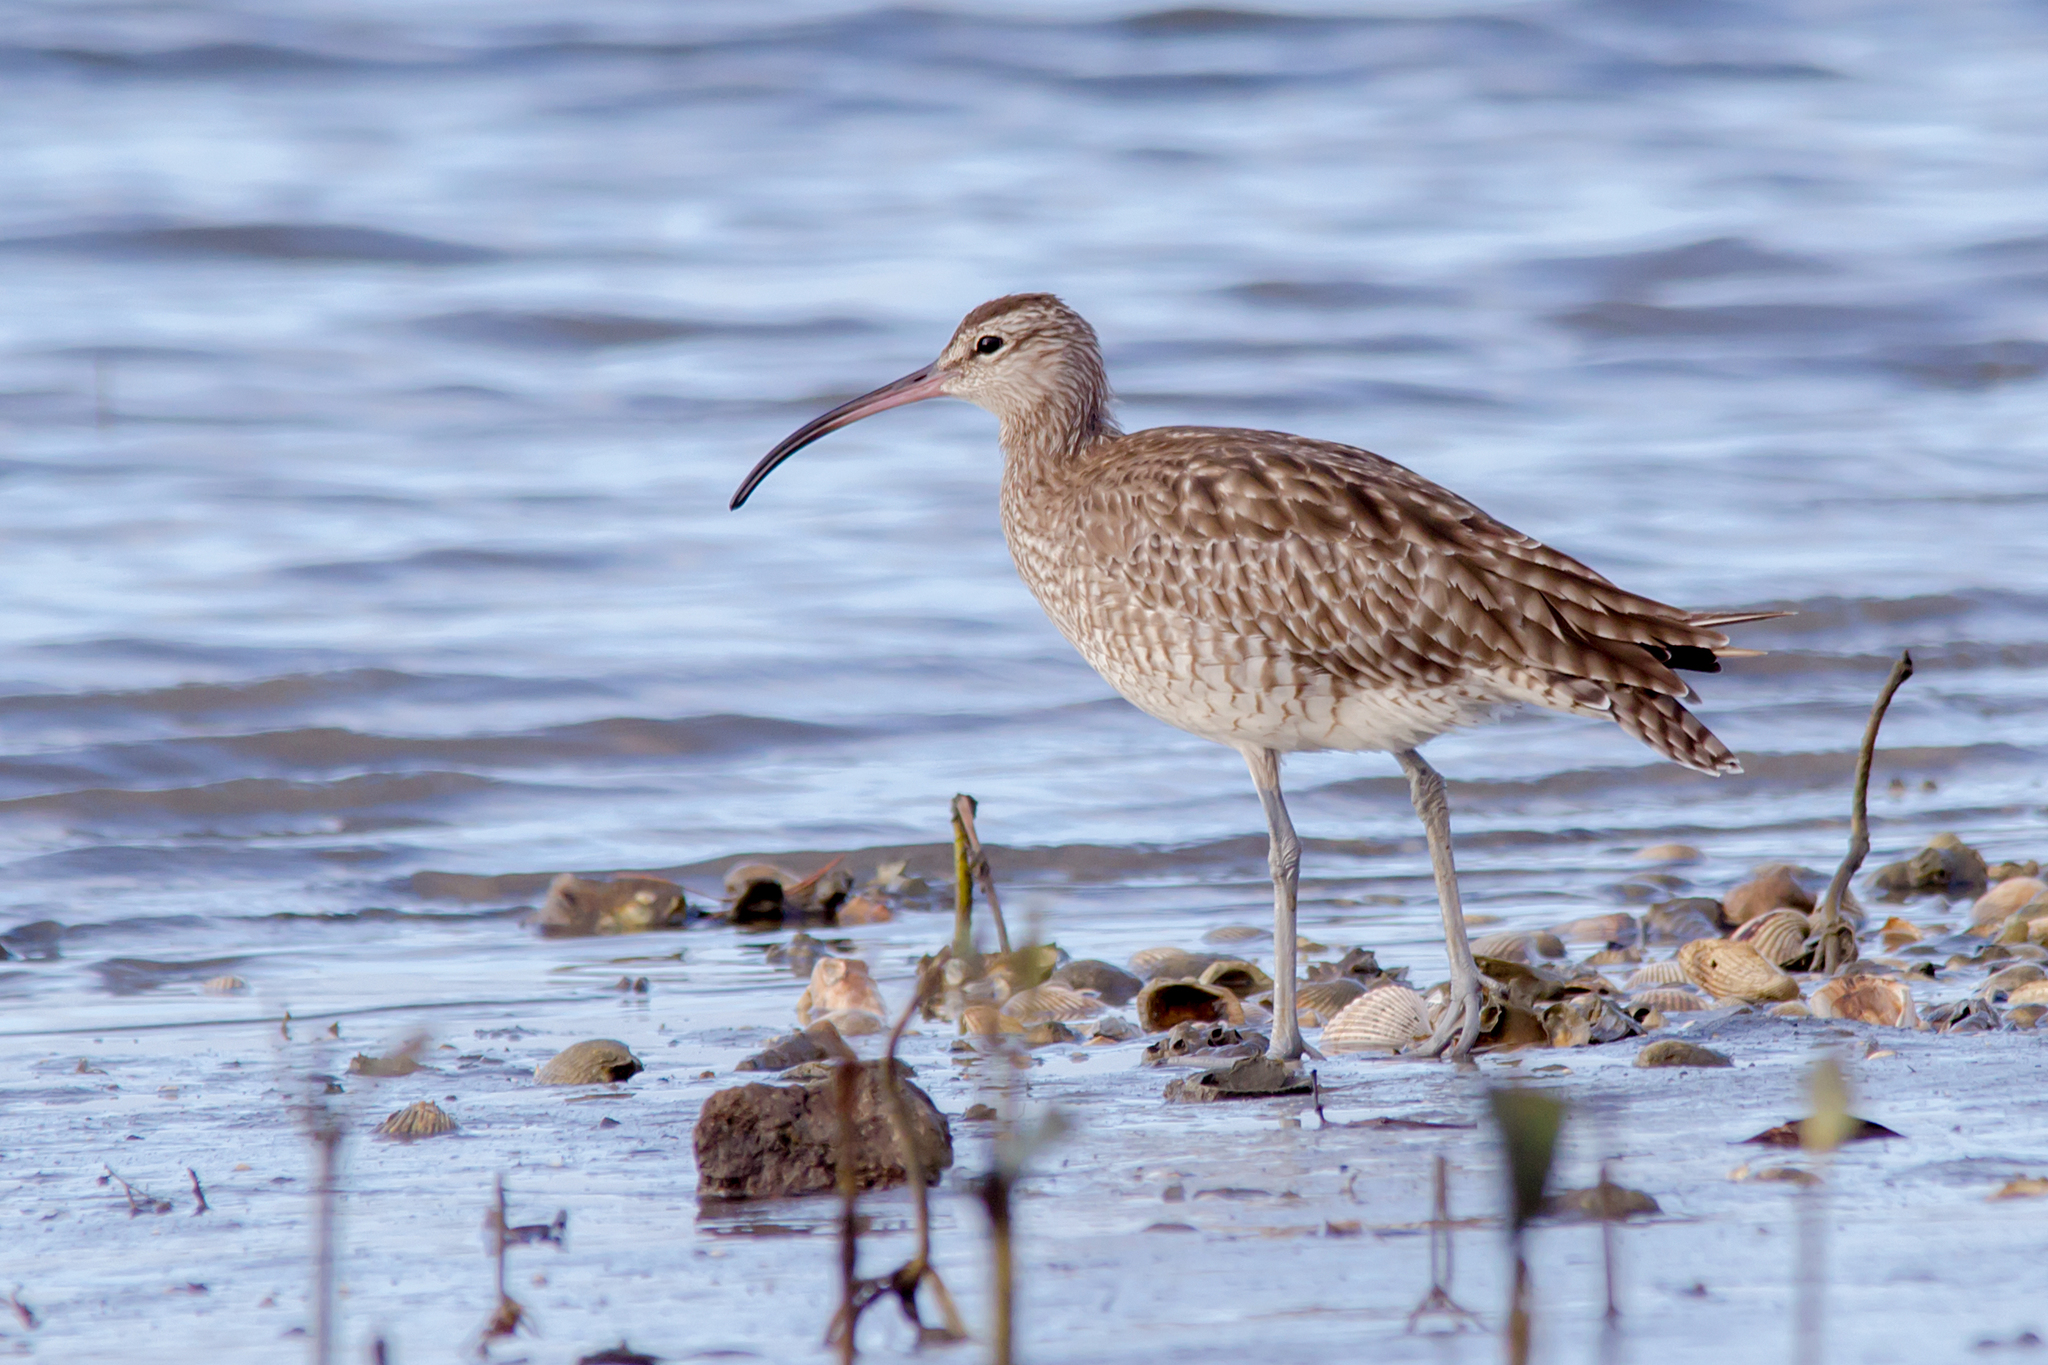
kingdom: Animalia
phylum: Chordata
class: Aves
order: Charadriiformes
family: Scolopacidae
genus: Numenius
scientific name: Numenius phaeopus
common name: Whimbrel
